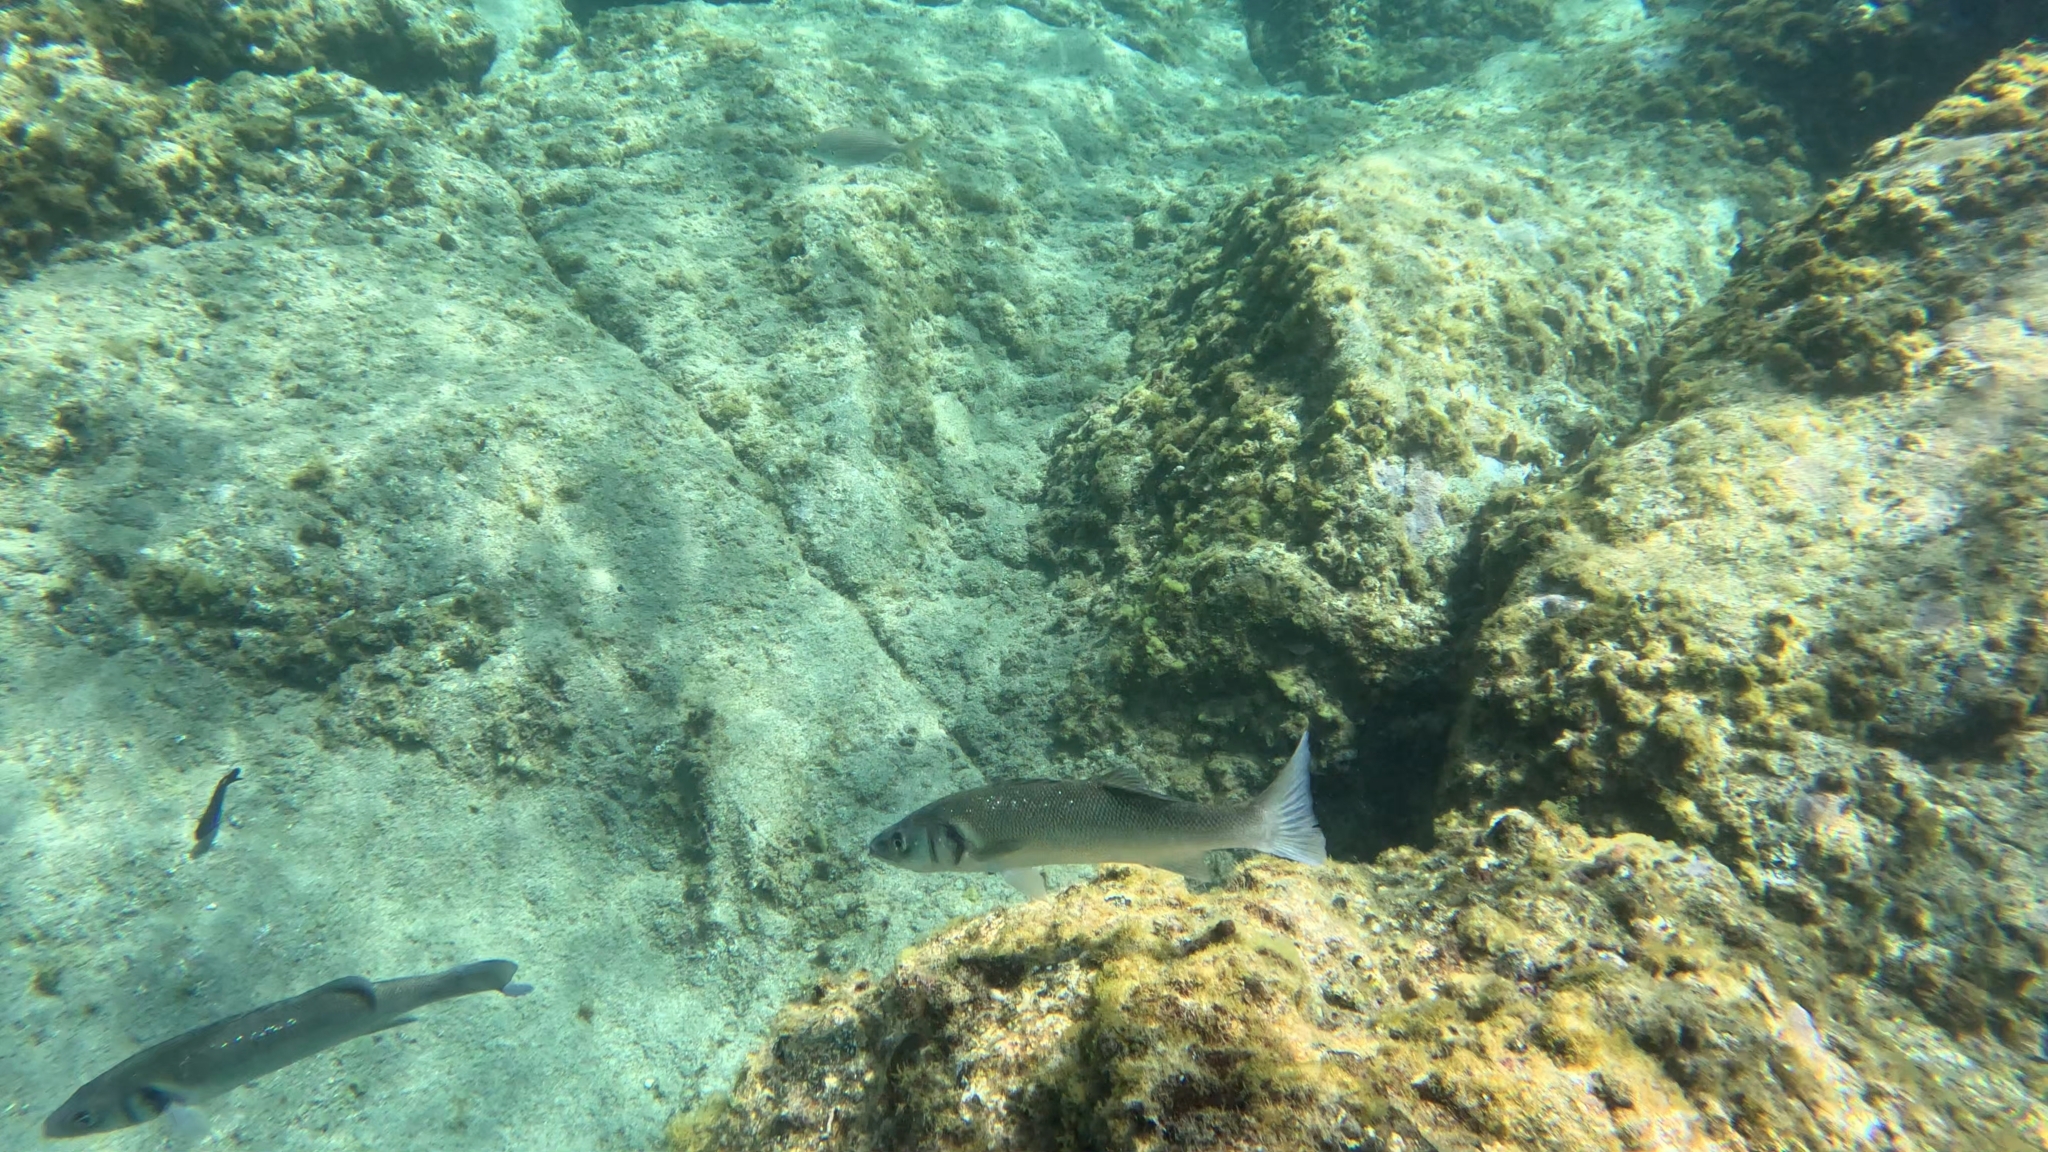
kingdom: Animalia
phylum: Chordata
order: Perciformes
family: Moronidae
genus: Dicentrarchus
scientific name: Dicentrarchus labrax
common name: European seabass
